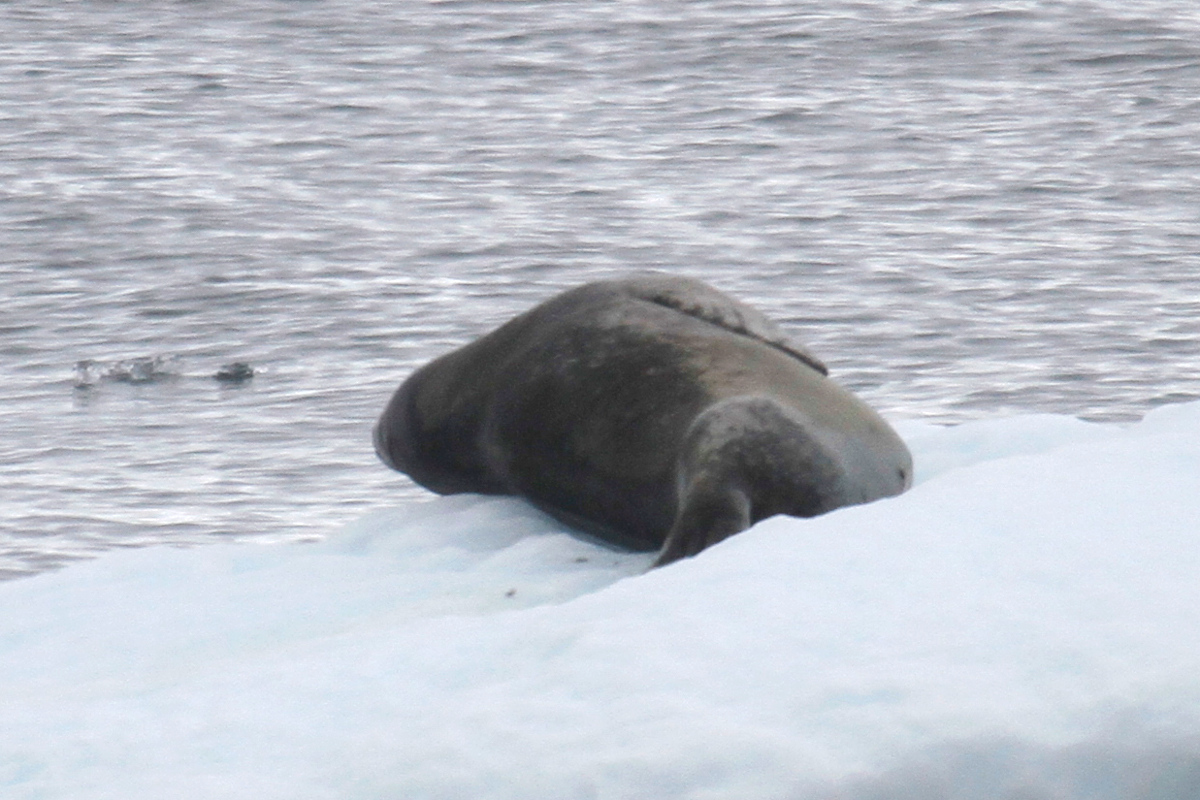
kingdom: Animalia
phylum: Chordata
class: Mammalia
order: Carnivora
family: Phocidae
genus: Hydrurga
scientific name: Hydrurga leptonyx
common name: Leopard seal
